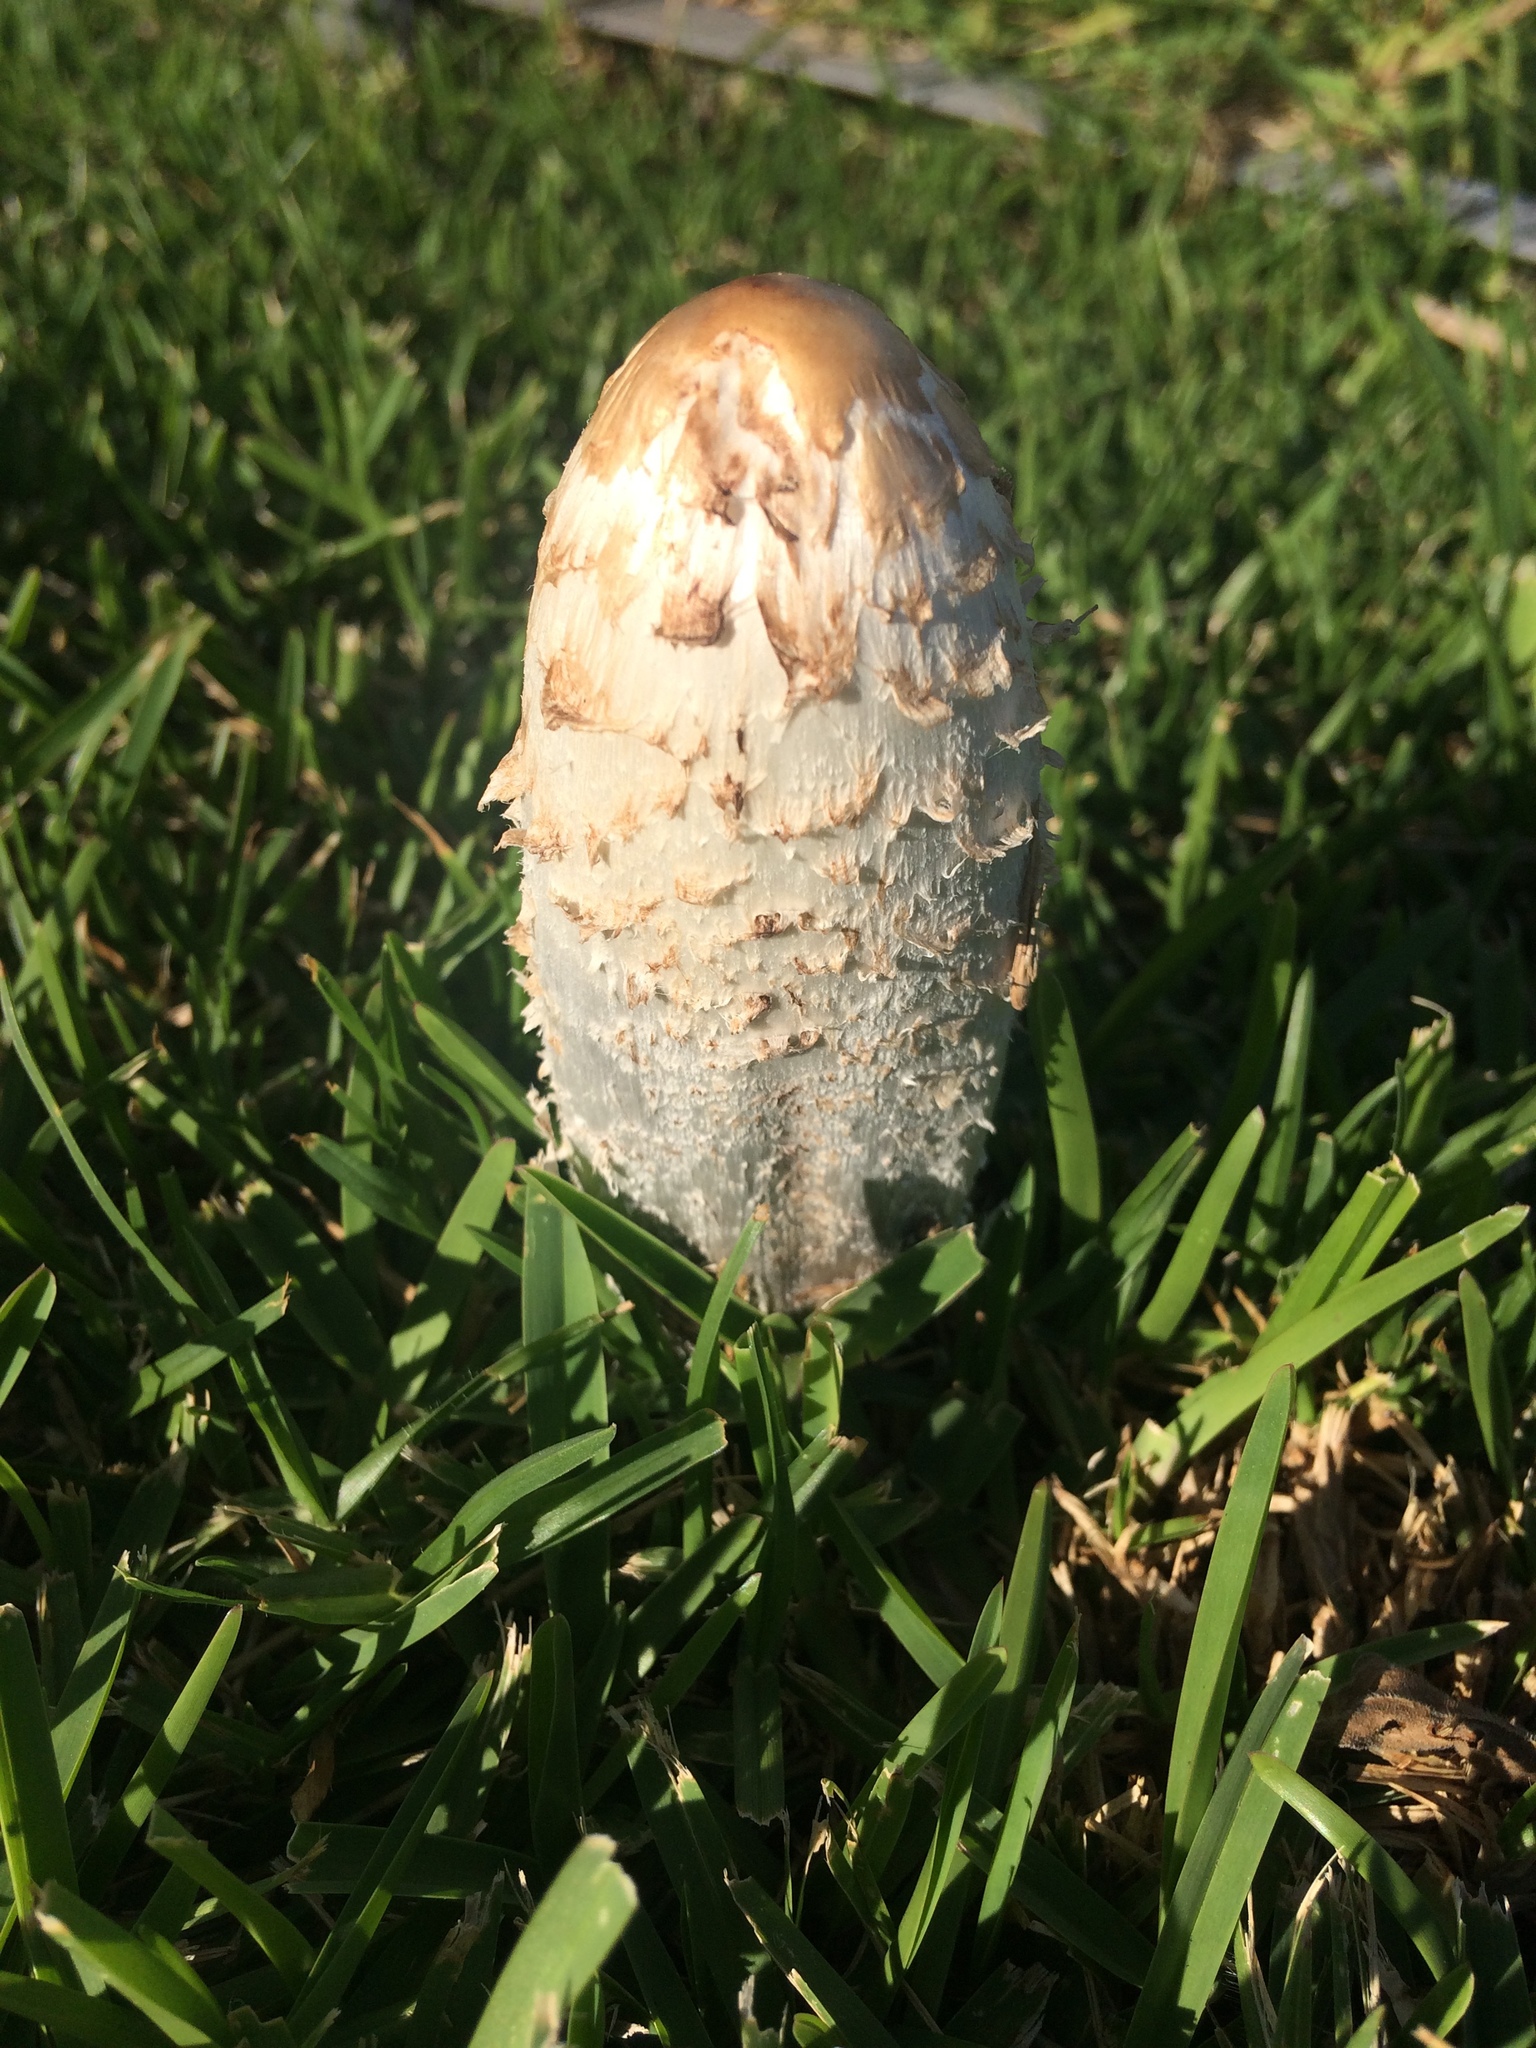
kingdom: Fungi
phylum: Basidiomycota
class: Agaricomycetes
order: Agaricales
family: Agaricaceae
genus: Coprinus
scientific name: Coprinus comatus
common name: Lawyer's wig
